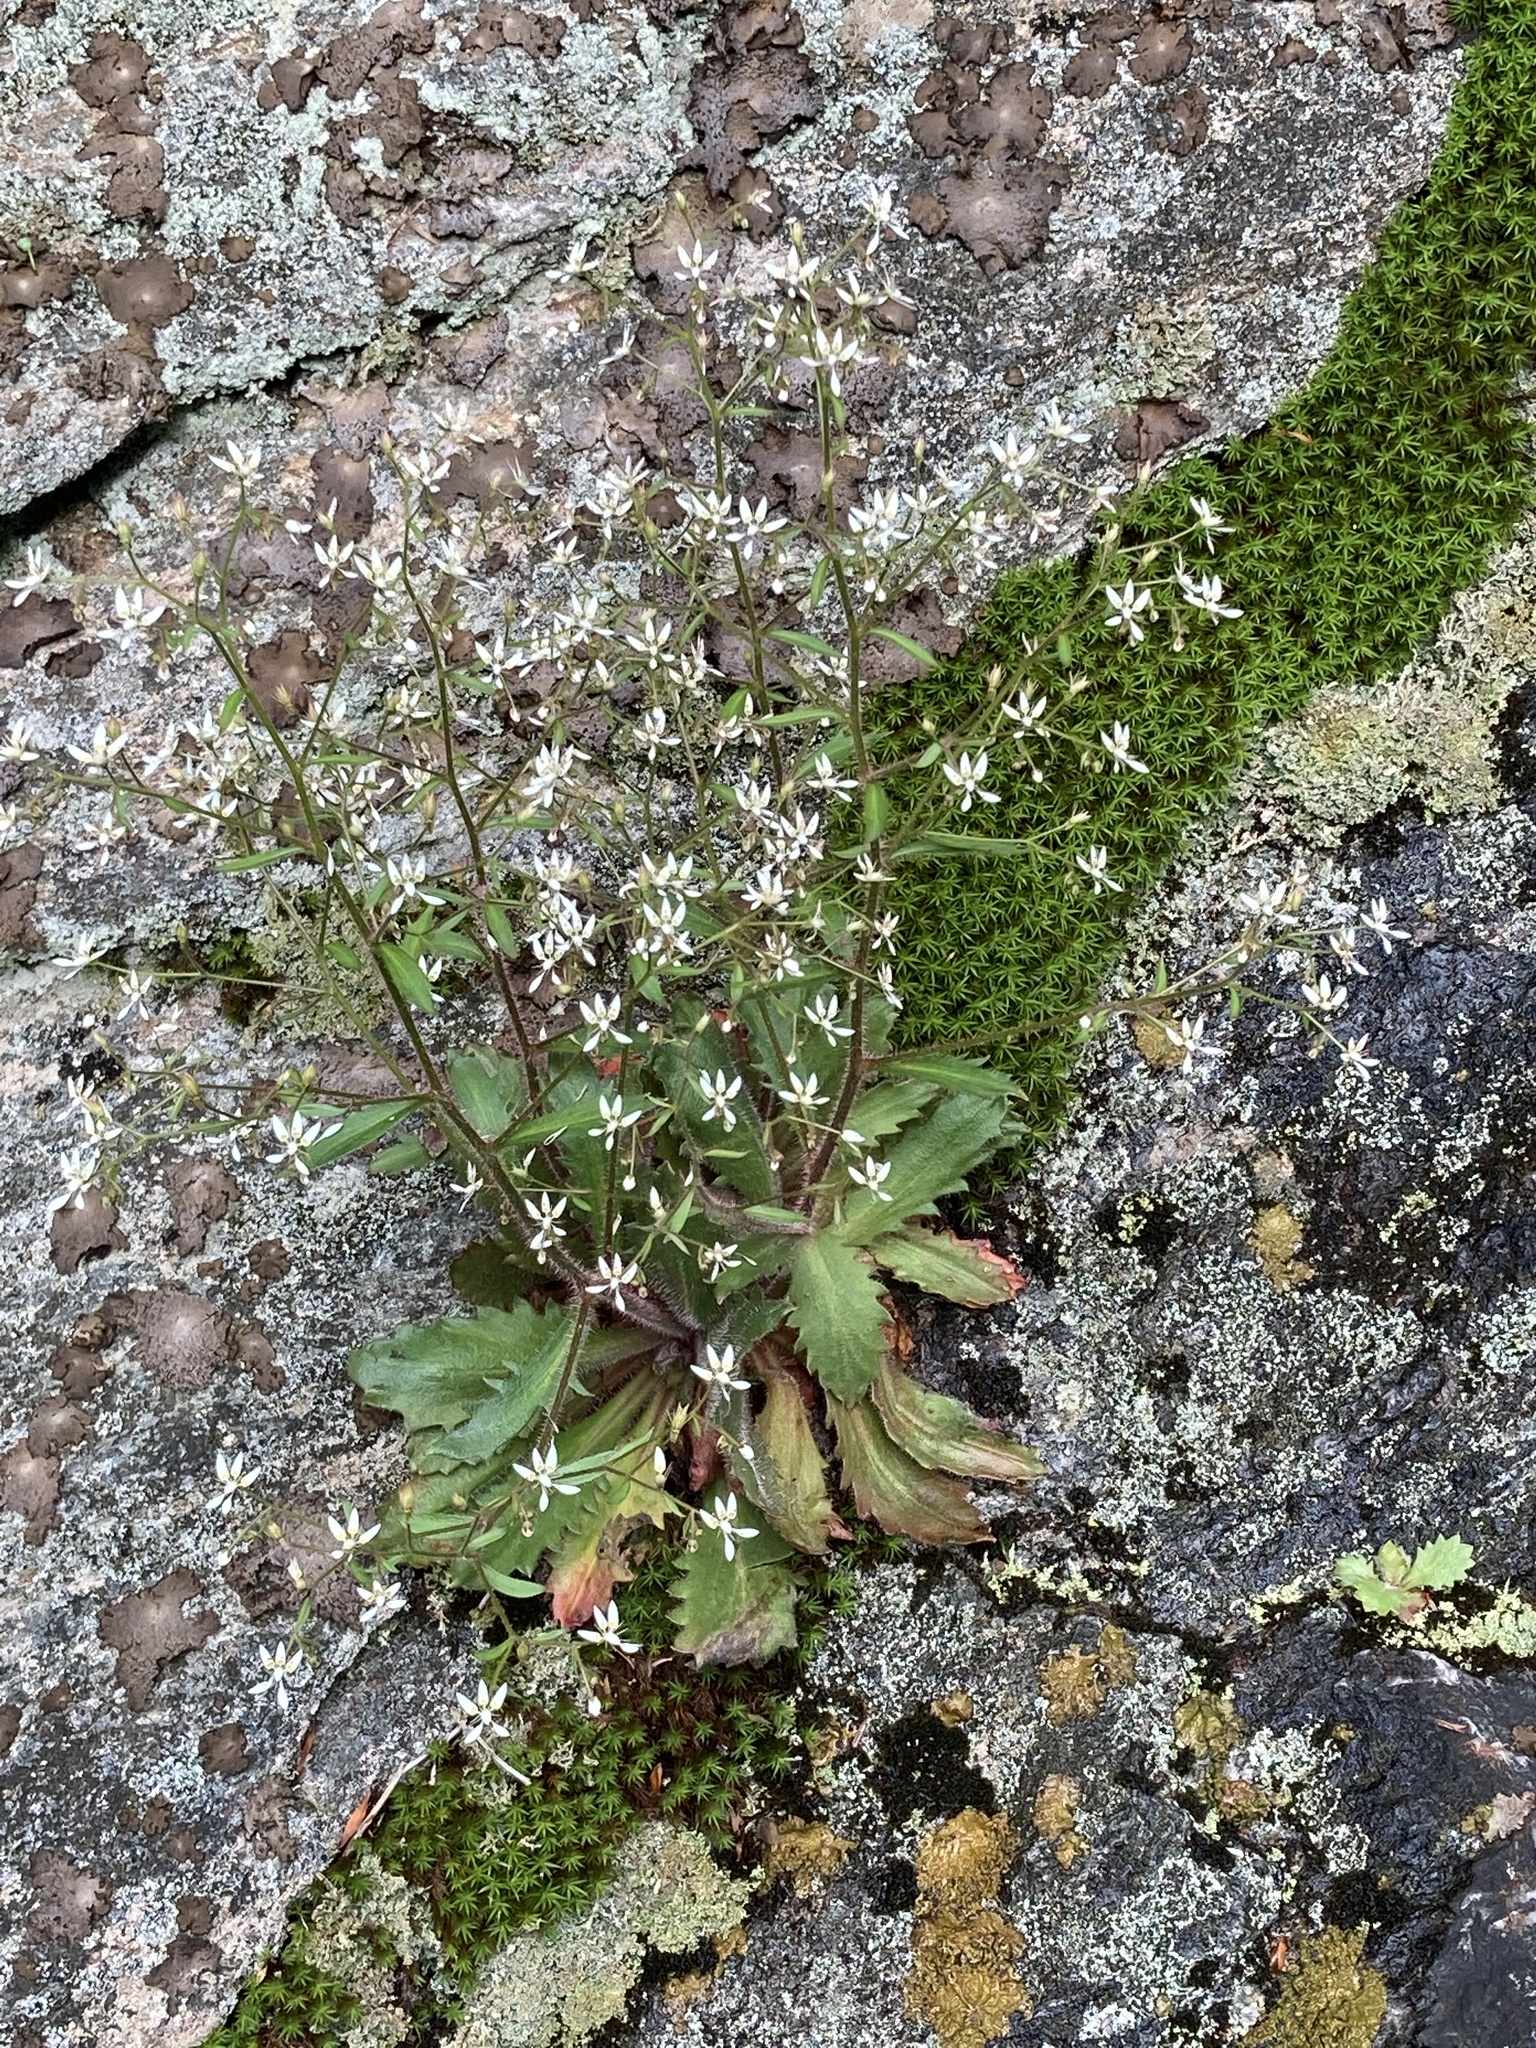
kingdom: Plantae
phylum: Tracheophyta
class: Magnoliopsida
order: Saxifragales
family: Saxifragaceae
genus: Micranthes
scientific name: Micranthes petiolaris
